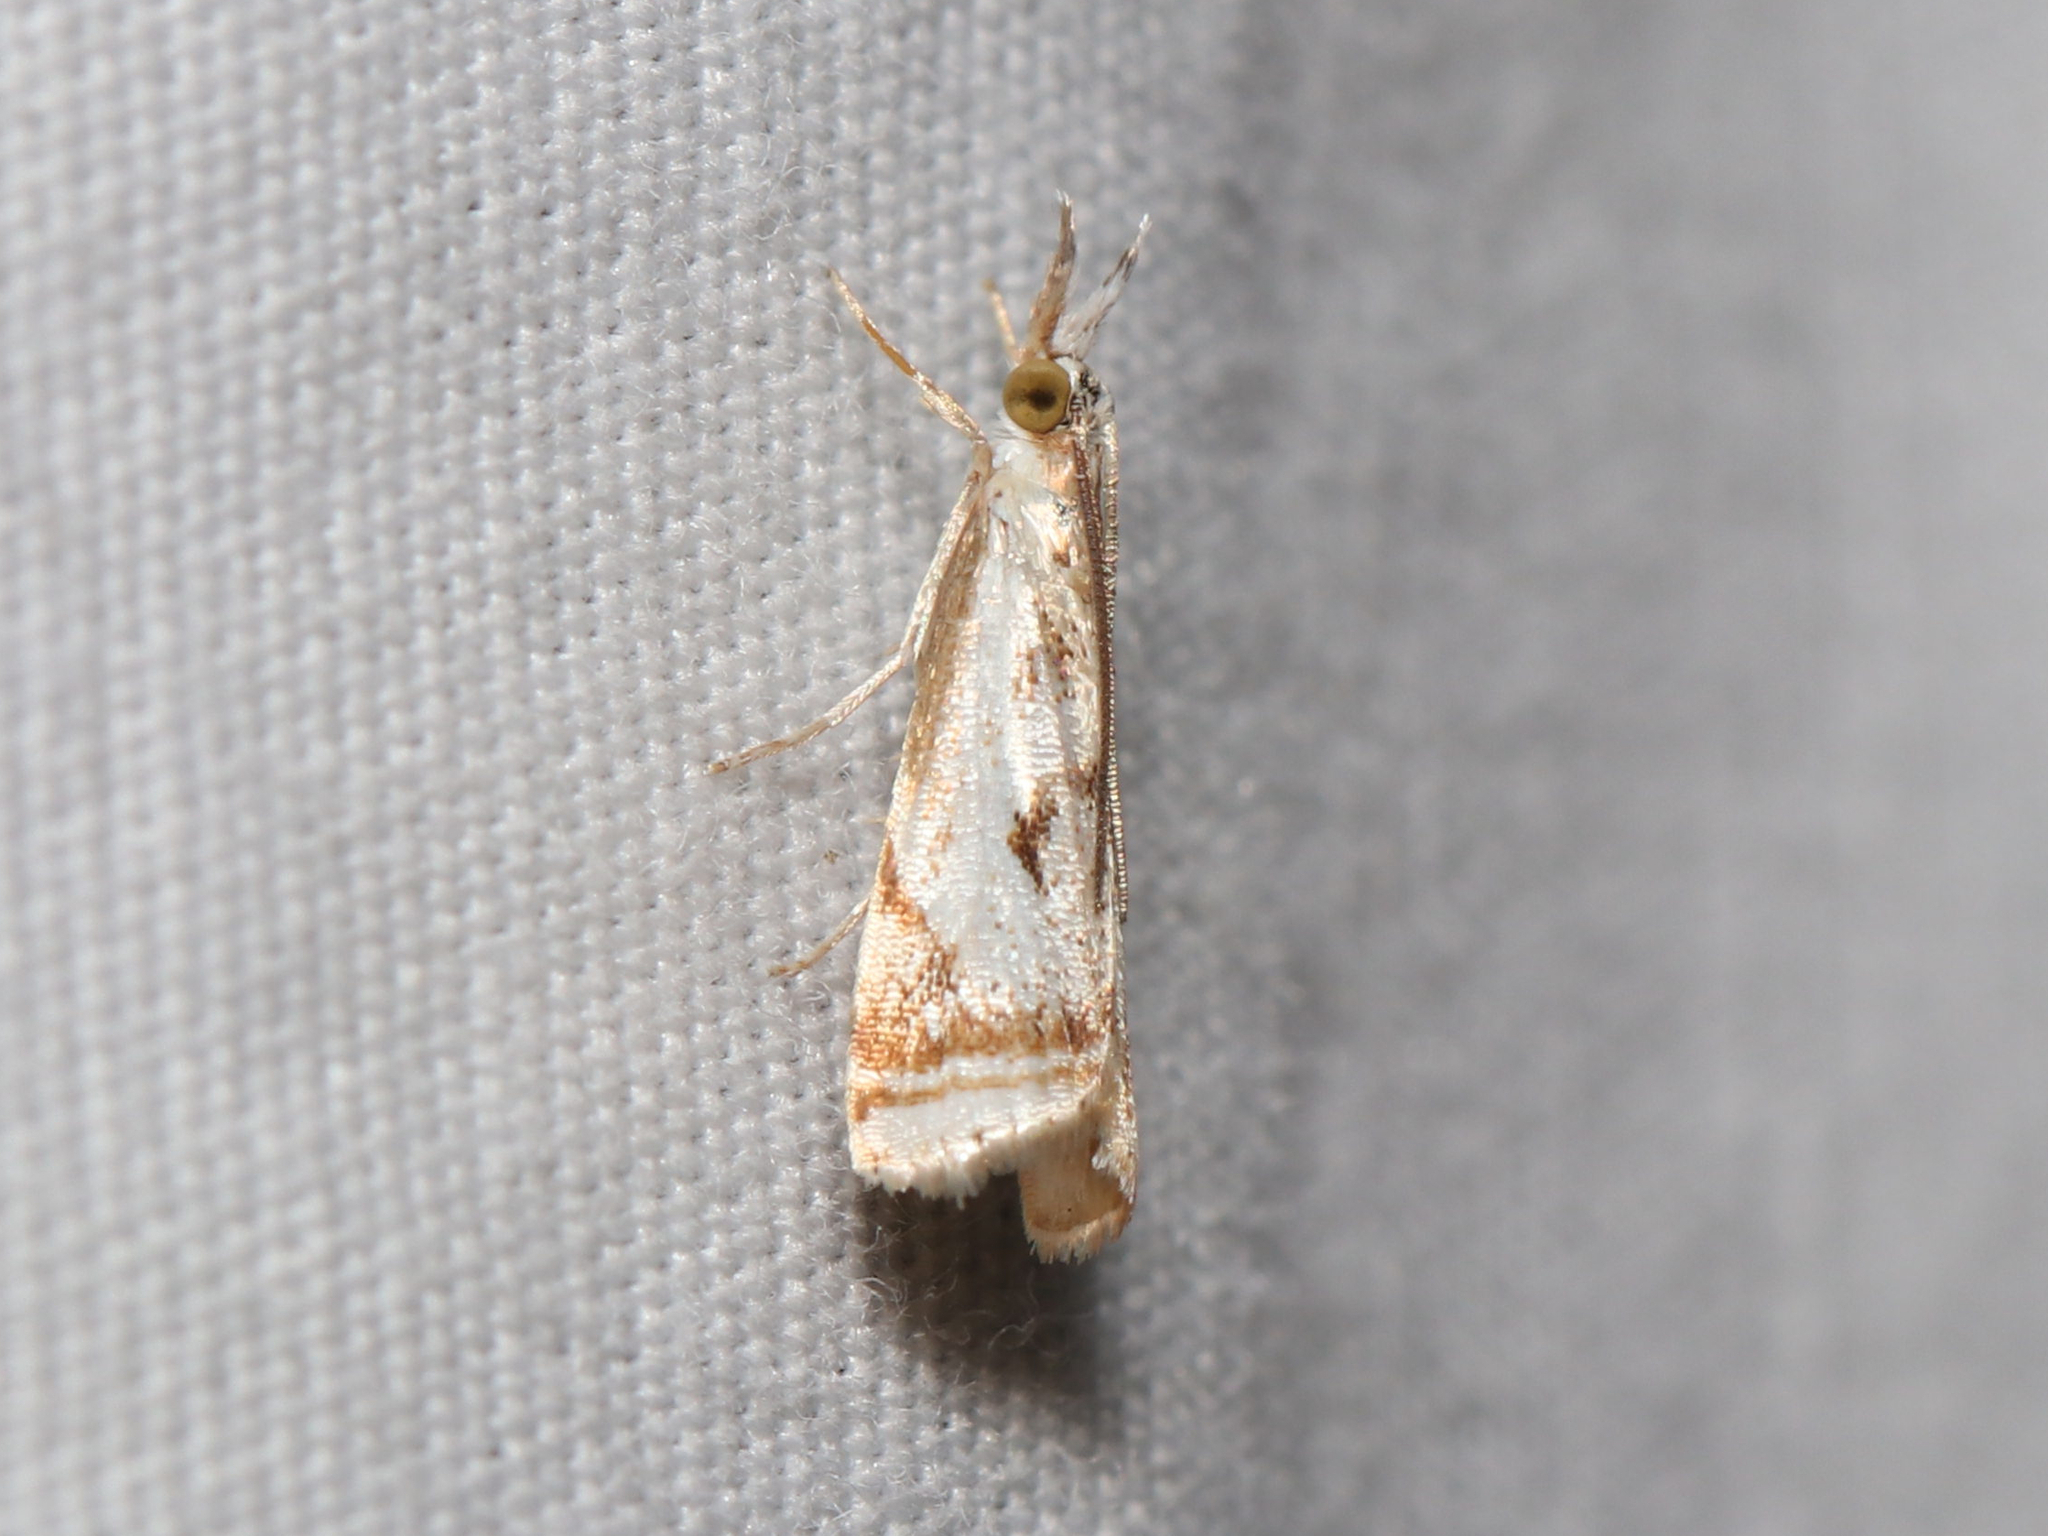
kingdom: Animalia
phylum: Arthropoda
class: Insecta
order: Lepidoptera
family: Crambidae
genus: Microcrambus
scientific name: Microcrambus elegans
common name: Elegant grass-veneer
